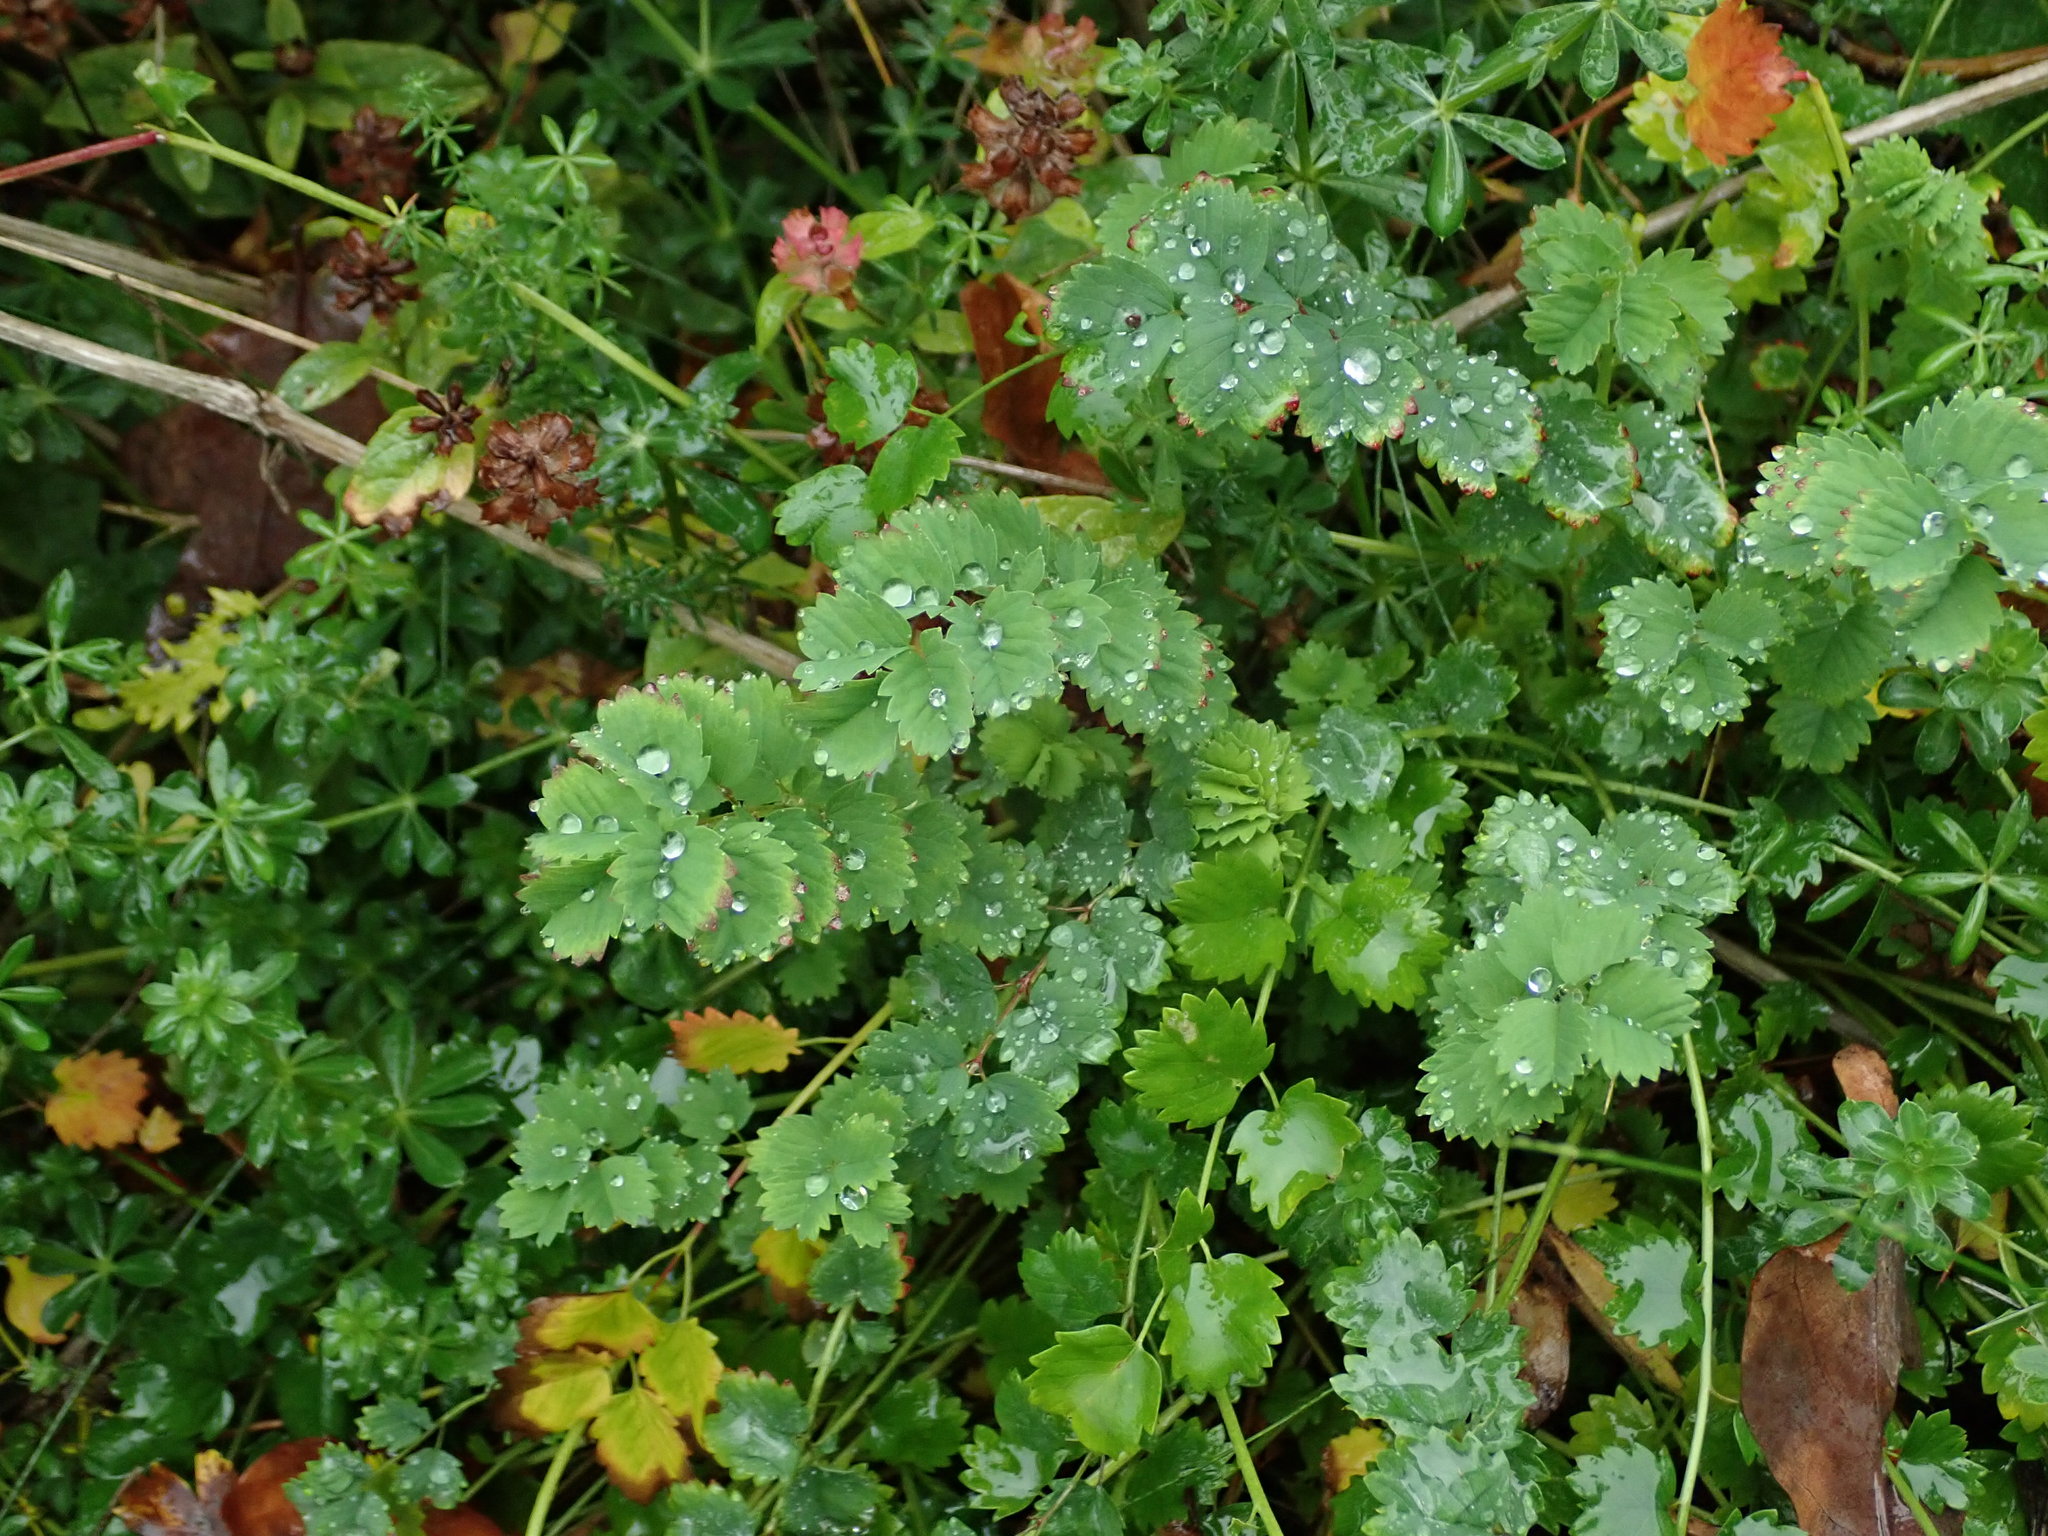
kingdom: Plantae
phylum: Tracheophyta
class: Magnoliopsida
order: Rosales
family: Rosaceae
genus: Poterium
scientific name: Poterium sanguisorba
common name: Salad burnet
